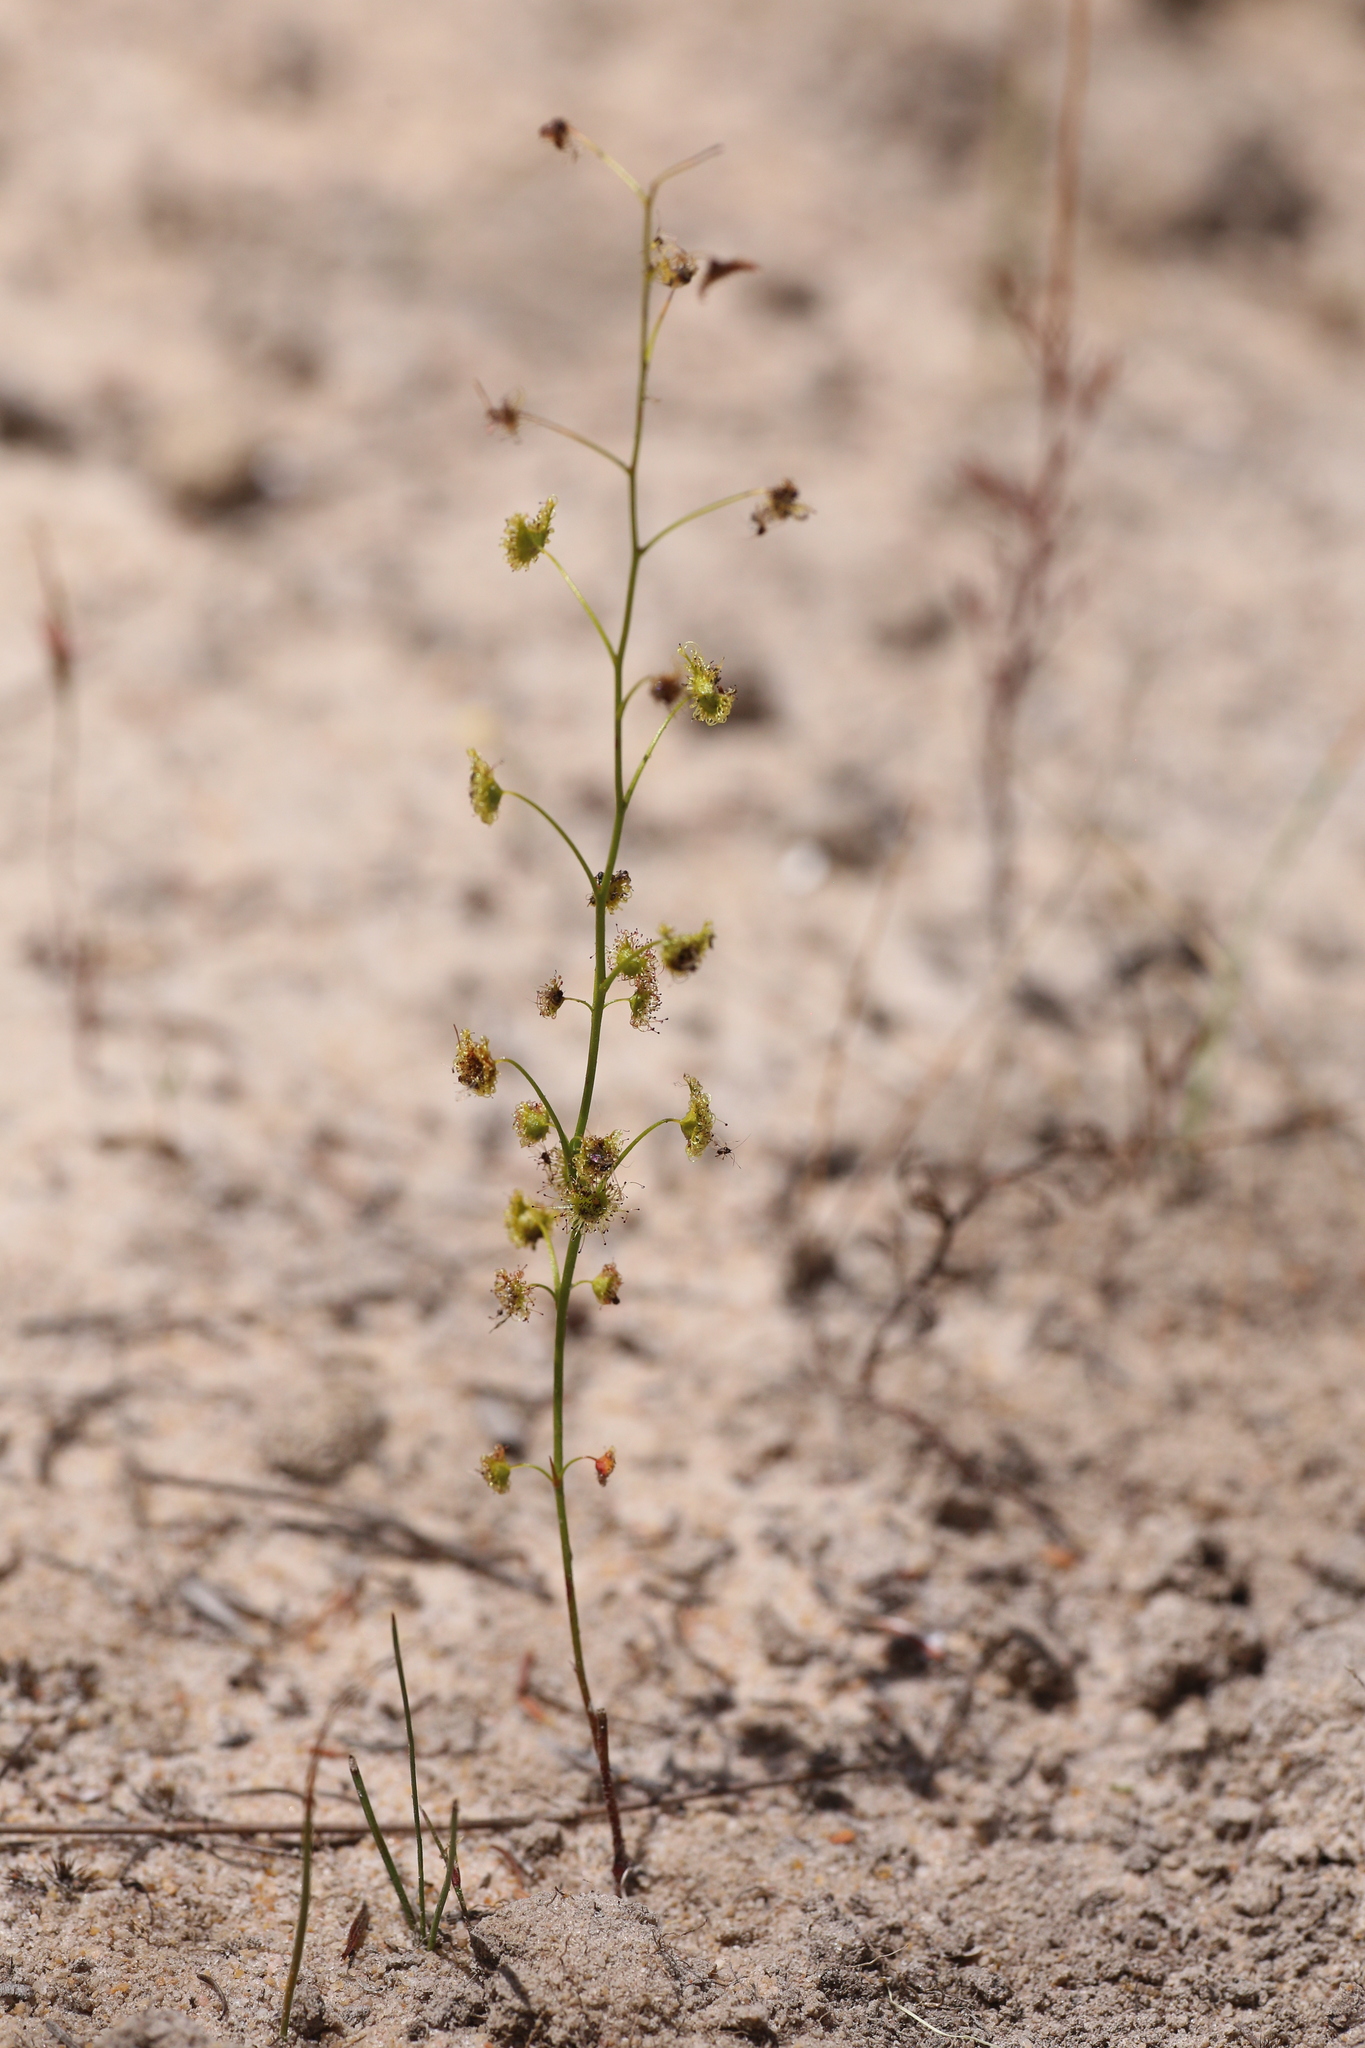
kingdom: Plantae
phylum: Tracheophyta
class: Magnoliopsida
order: Caryophyllales
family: Droseraceae
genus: Drosera
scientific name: Drosera neesii
